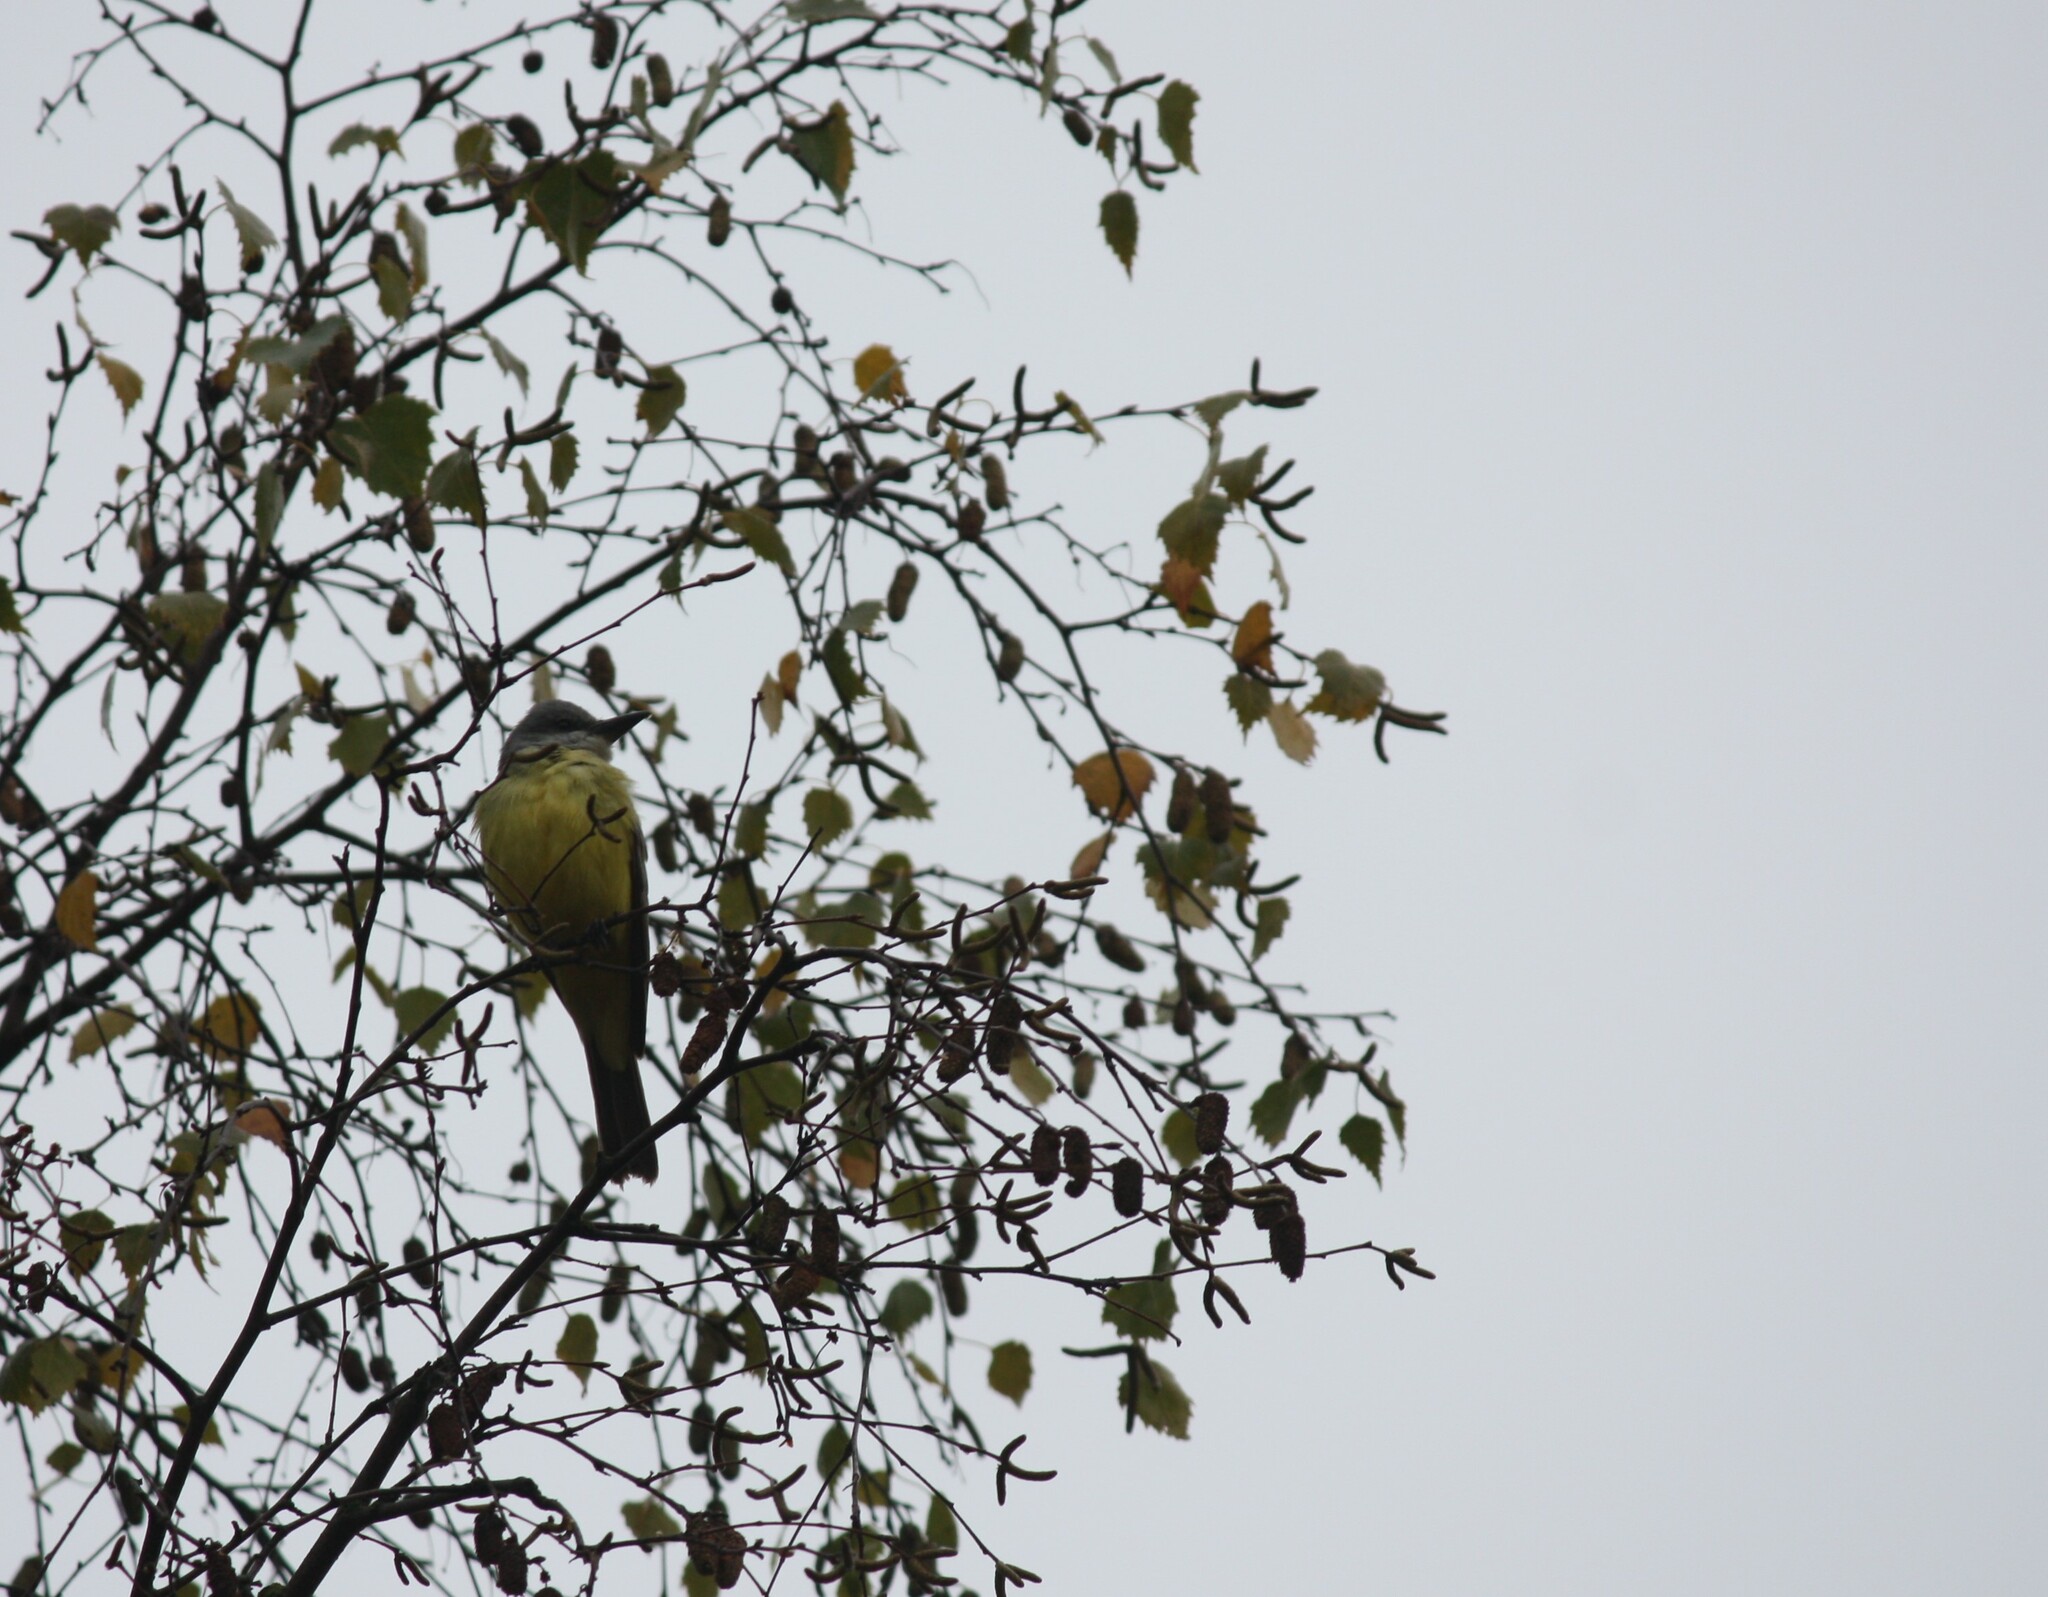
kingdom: Animalia
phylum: Chordata
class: Aves
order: Passeriformes
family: Tyrannidae
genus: Tyrannus
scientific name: Tyrannus melancholicus
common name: Tropical kingbird
